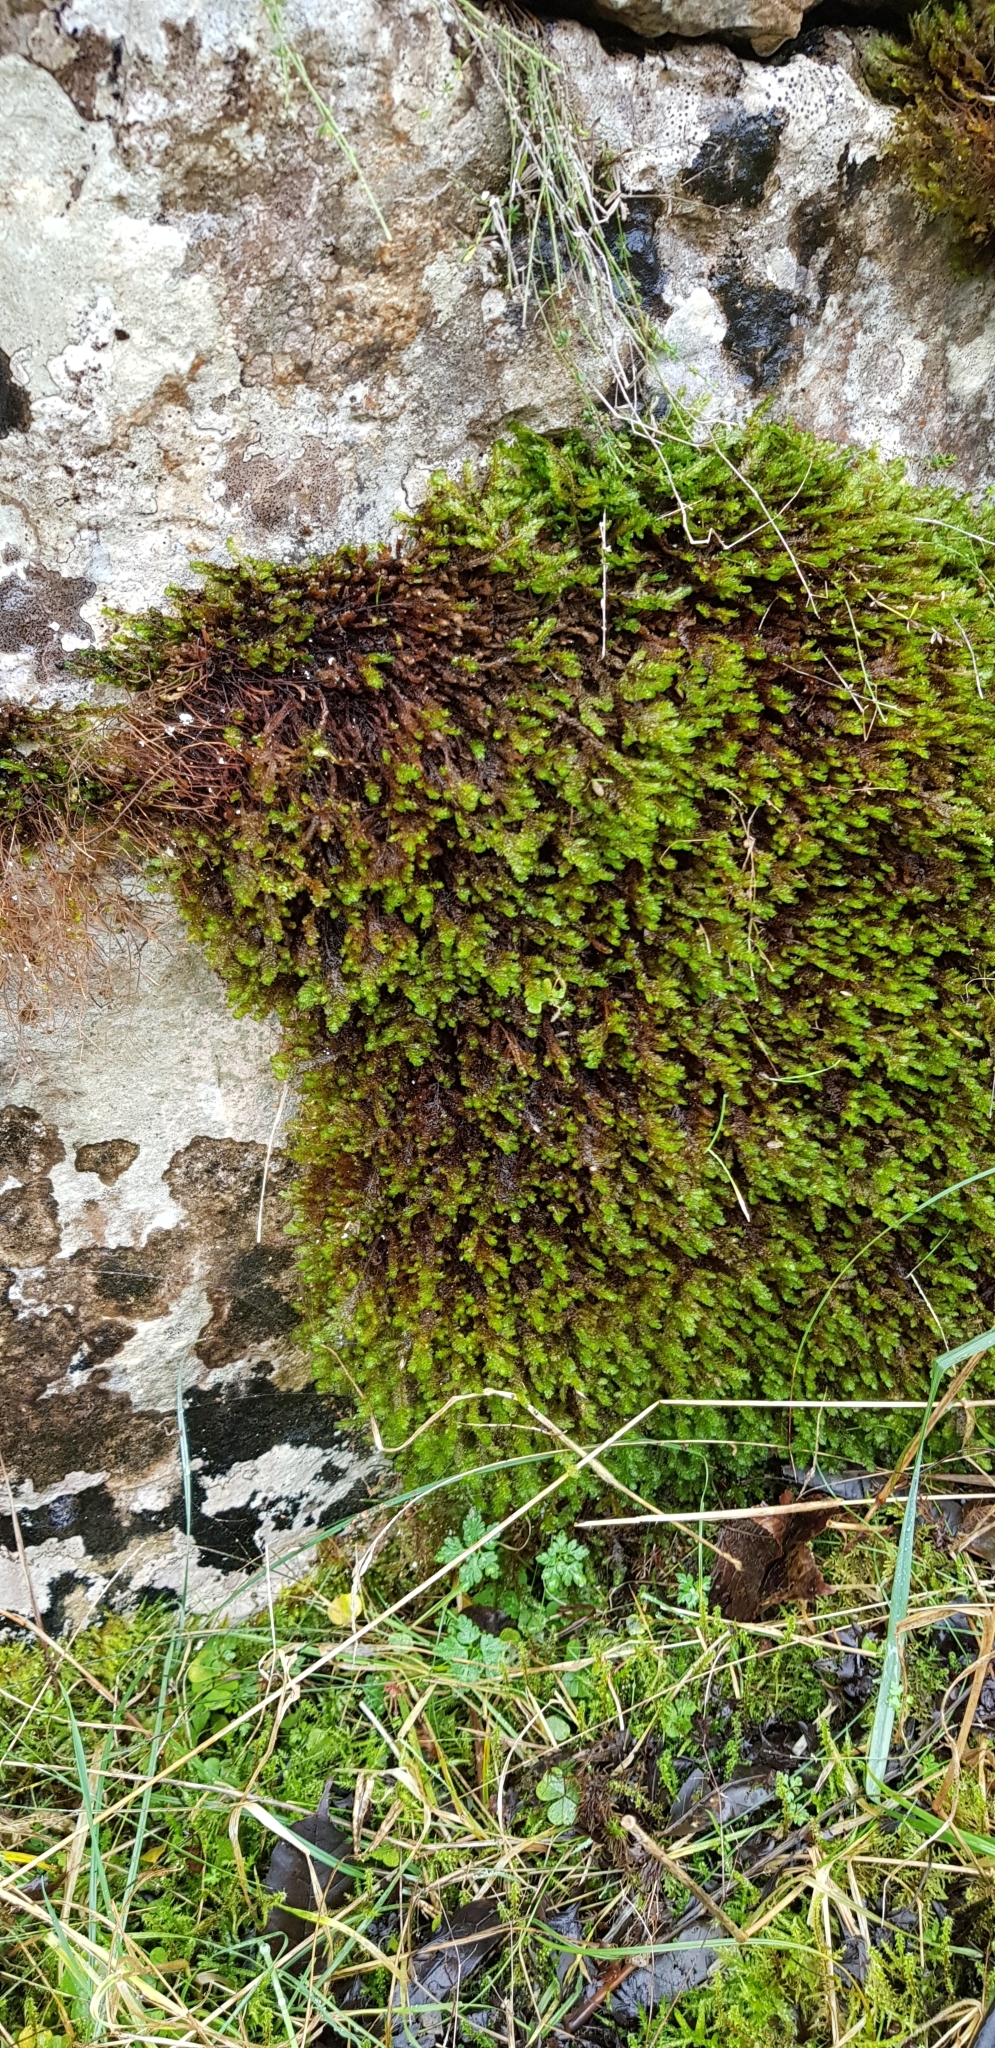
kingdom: Plantae
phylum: Bryophyta
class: Bryopsida
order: Hypnales
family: Neckeraceae
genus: Exsertotheca
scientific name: Exsertotheca crispa
